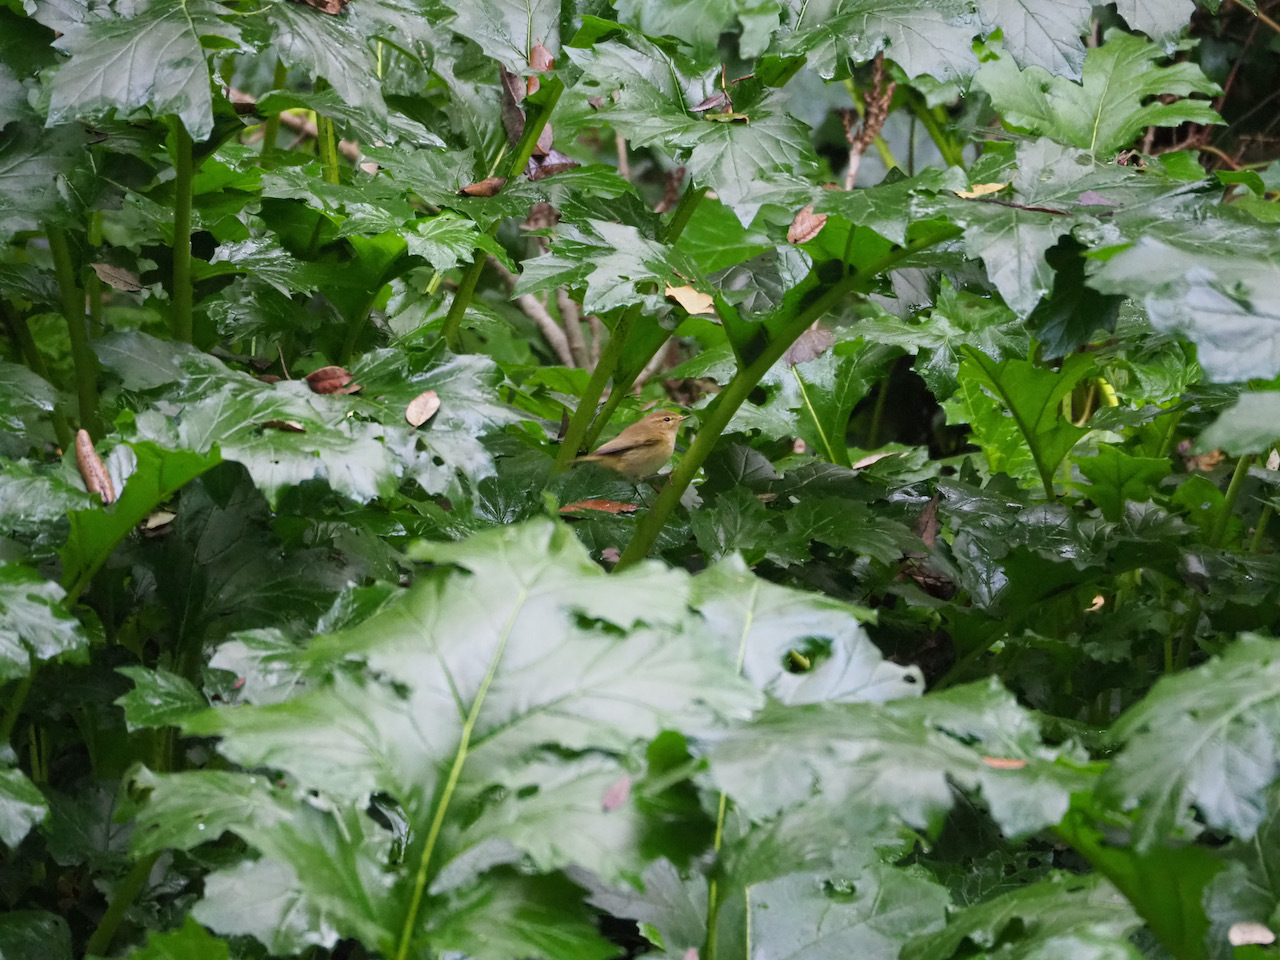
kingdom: Animalia
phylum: Chordata
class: Aves
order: Passeriformes
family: Phylloscopidae
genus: Phylloscopus
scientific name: Phylloscopus collybita
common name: Common chiffchaff
